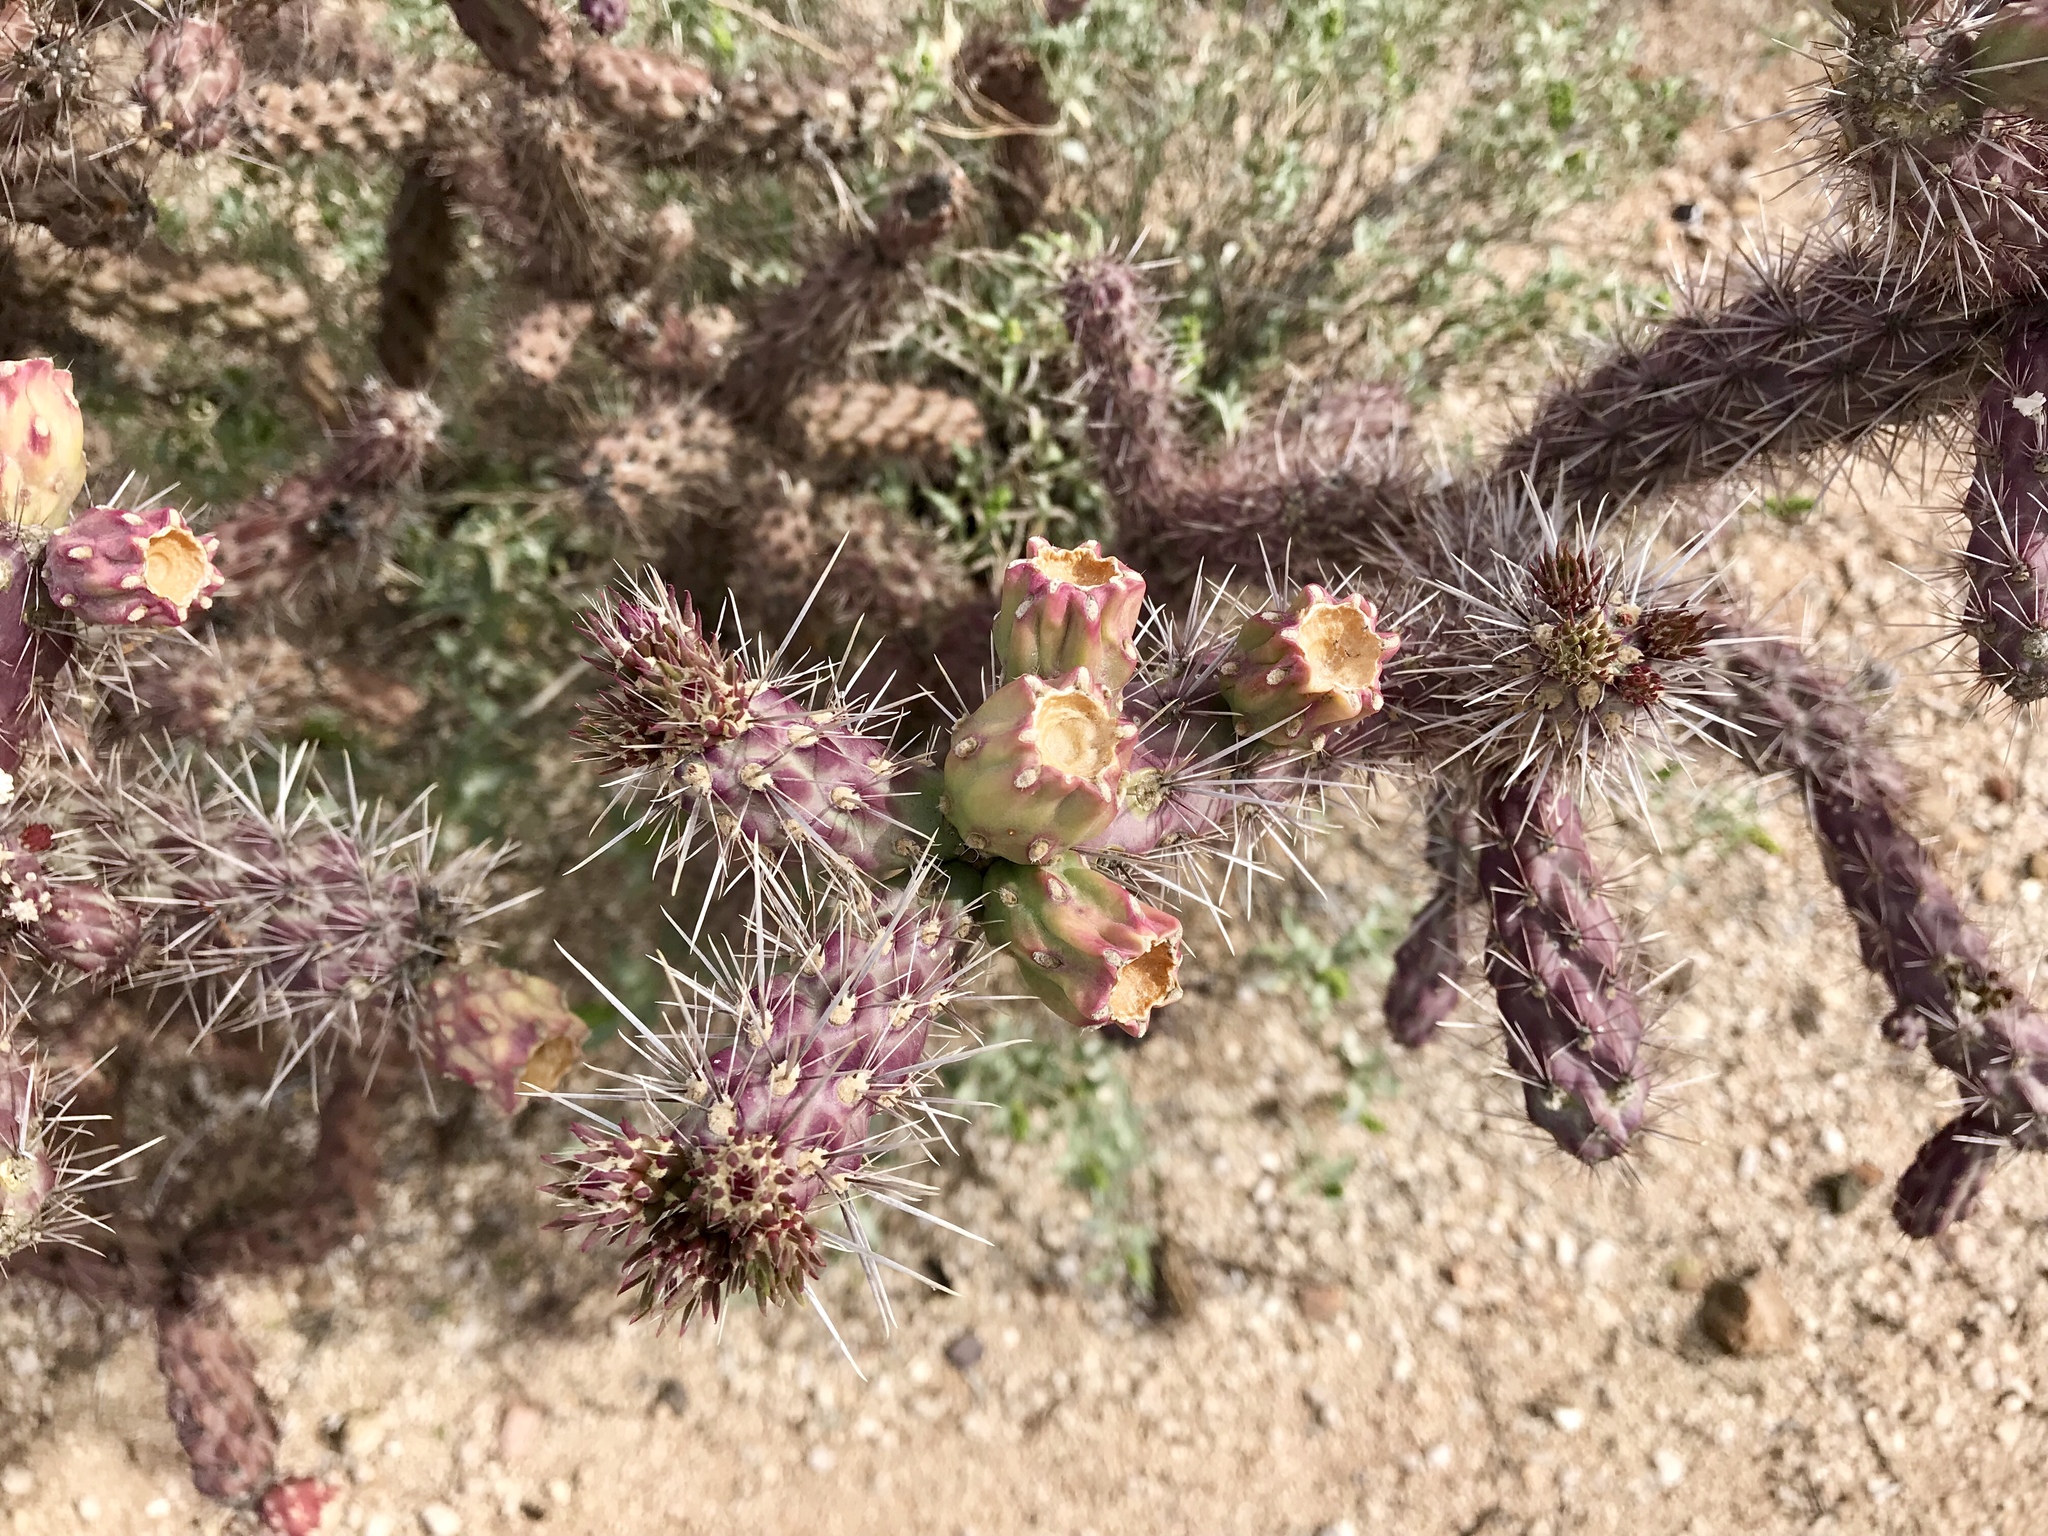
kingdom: Plantae
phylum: Tracheophyta
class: Magnoliopsida
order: Caryophyllales
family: Cactaceae
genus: Cylindropuntia
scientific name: Cylindropuntia thurberi
